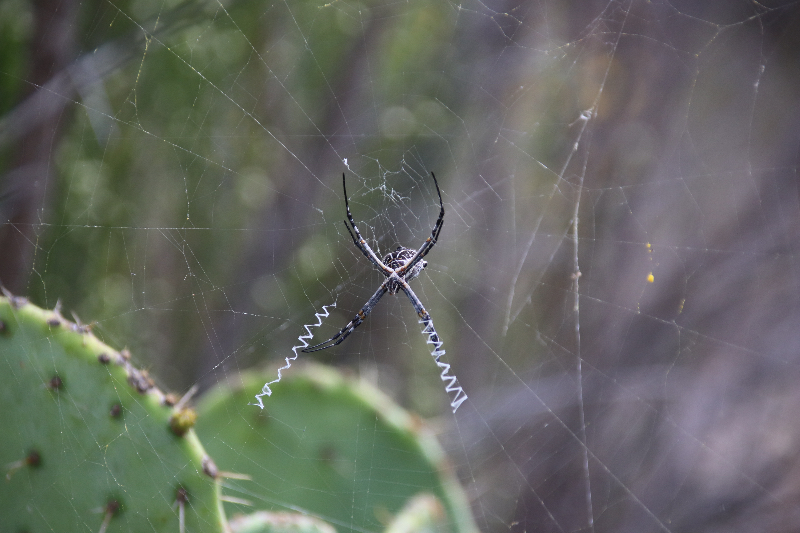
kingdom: Animalia
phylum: Arthropoda
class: Arachnida
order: Araneae
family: Araneidae
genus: Argiope
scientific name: Argiope argentata
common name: Orb weavers
